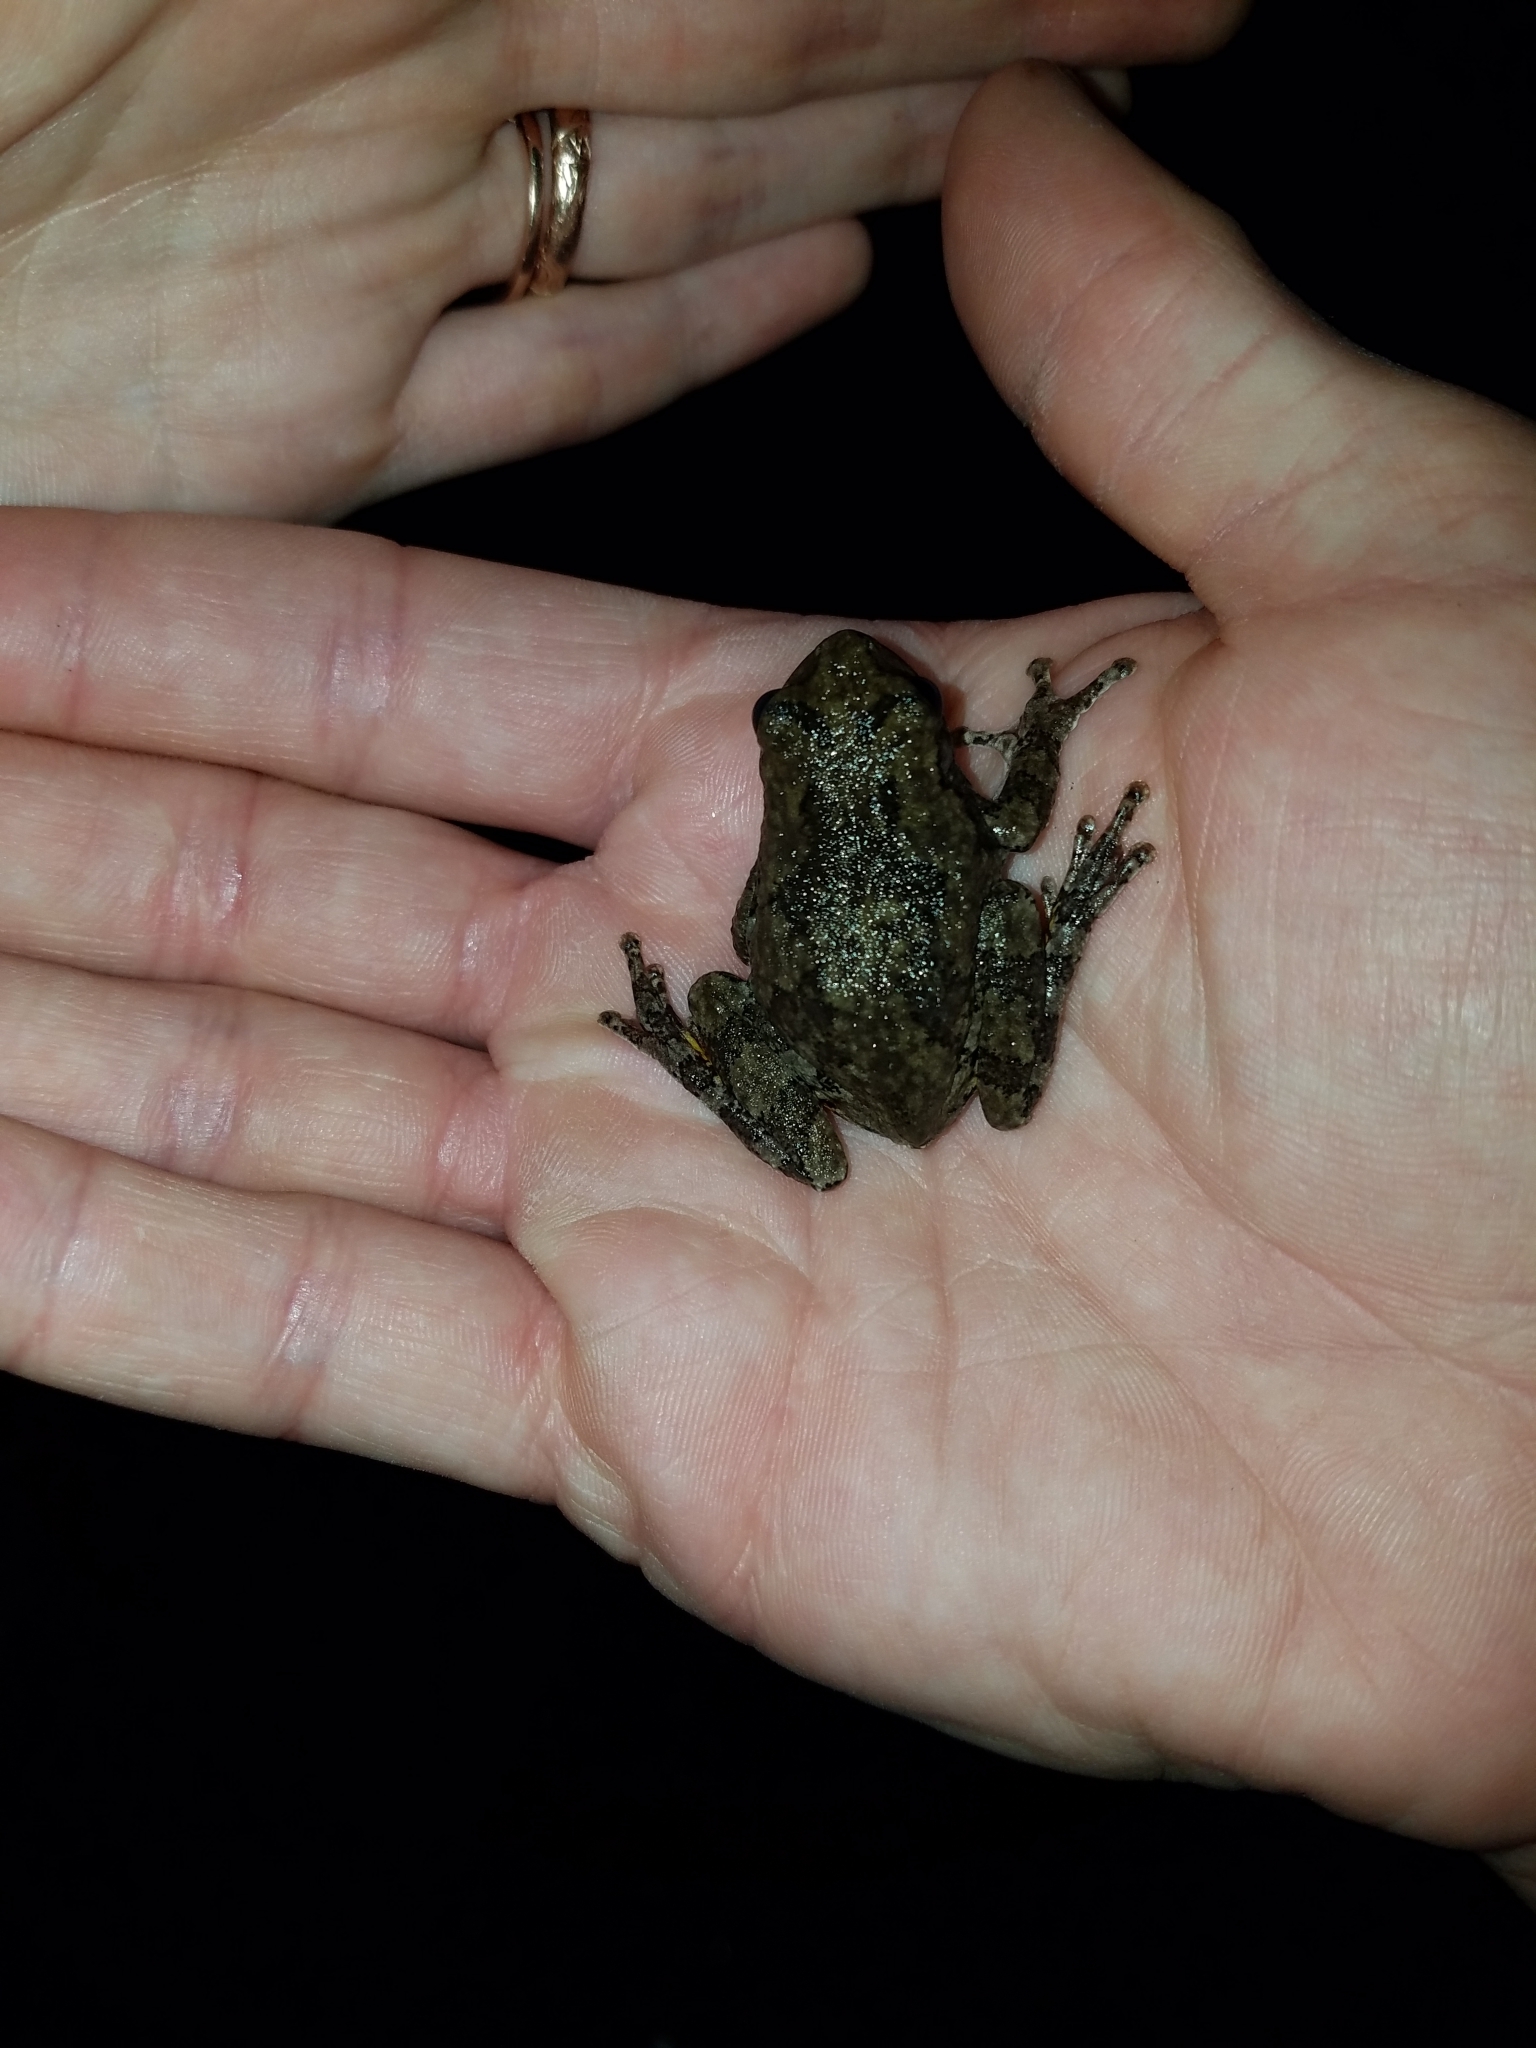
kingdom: Animalia
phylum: Chordata
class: Amphibia
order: Anura
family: Hylidae
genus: Hyla
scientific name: Hyla
